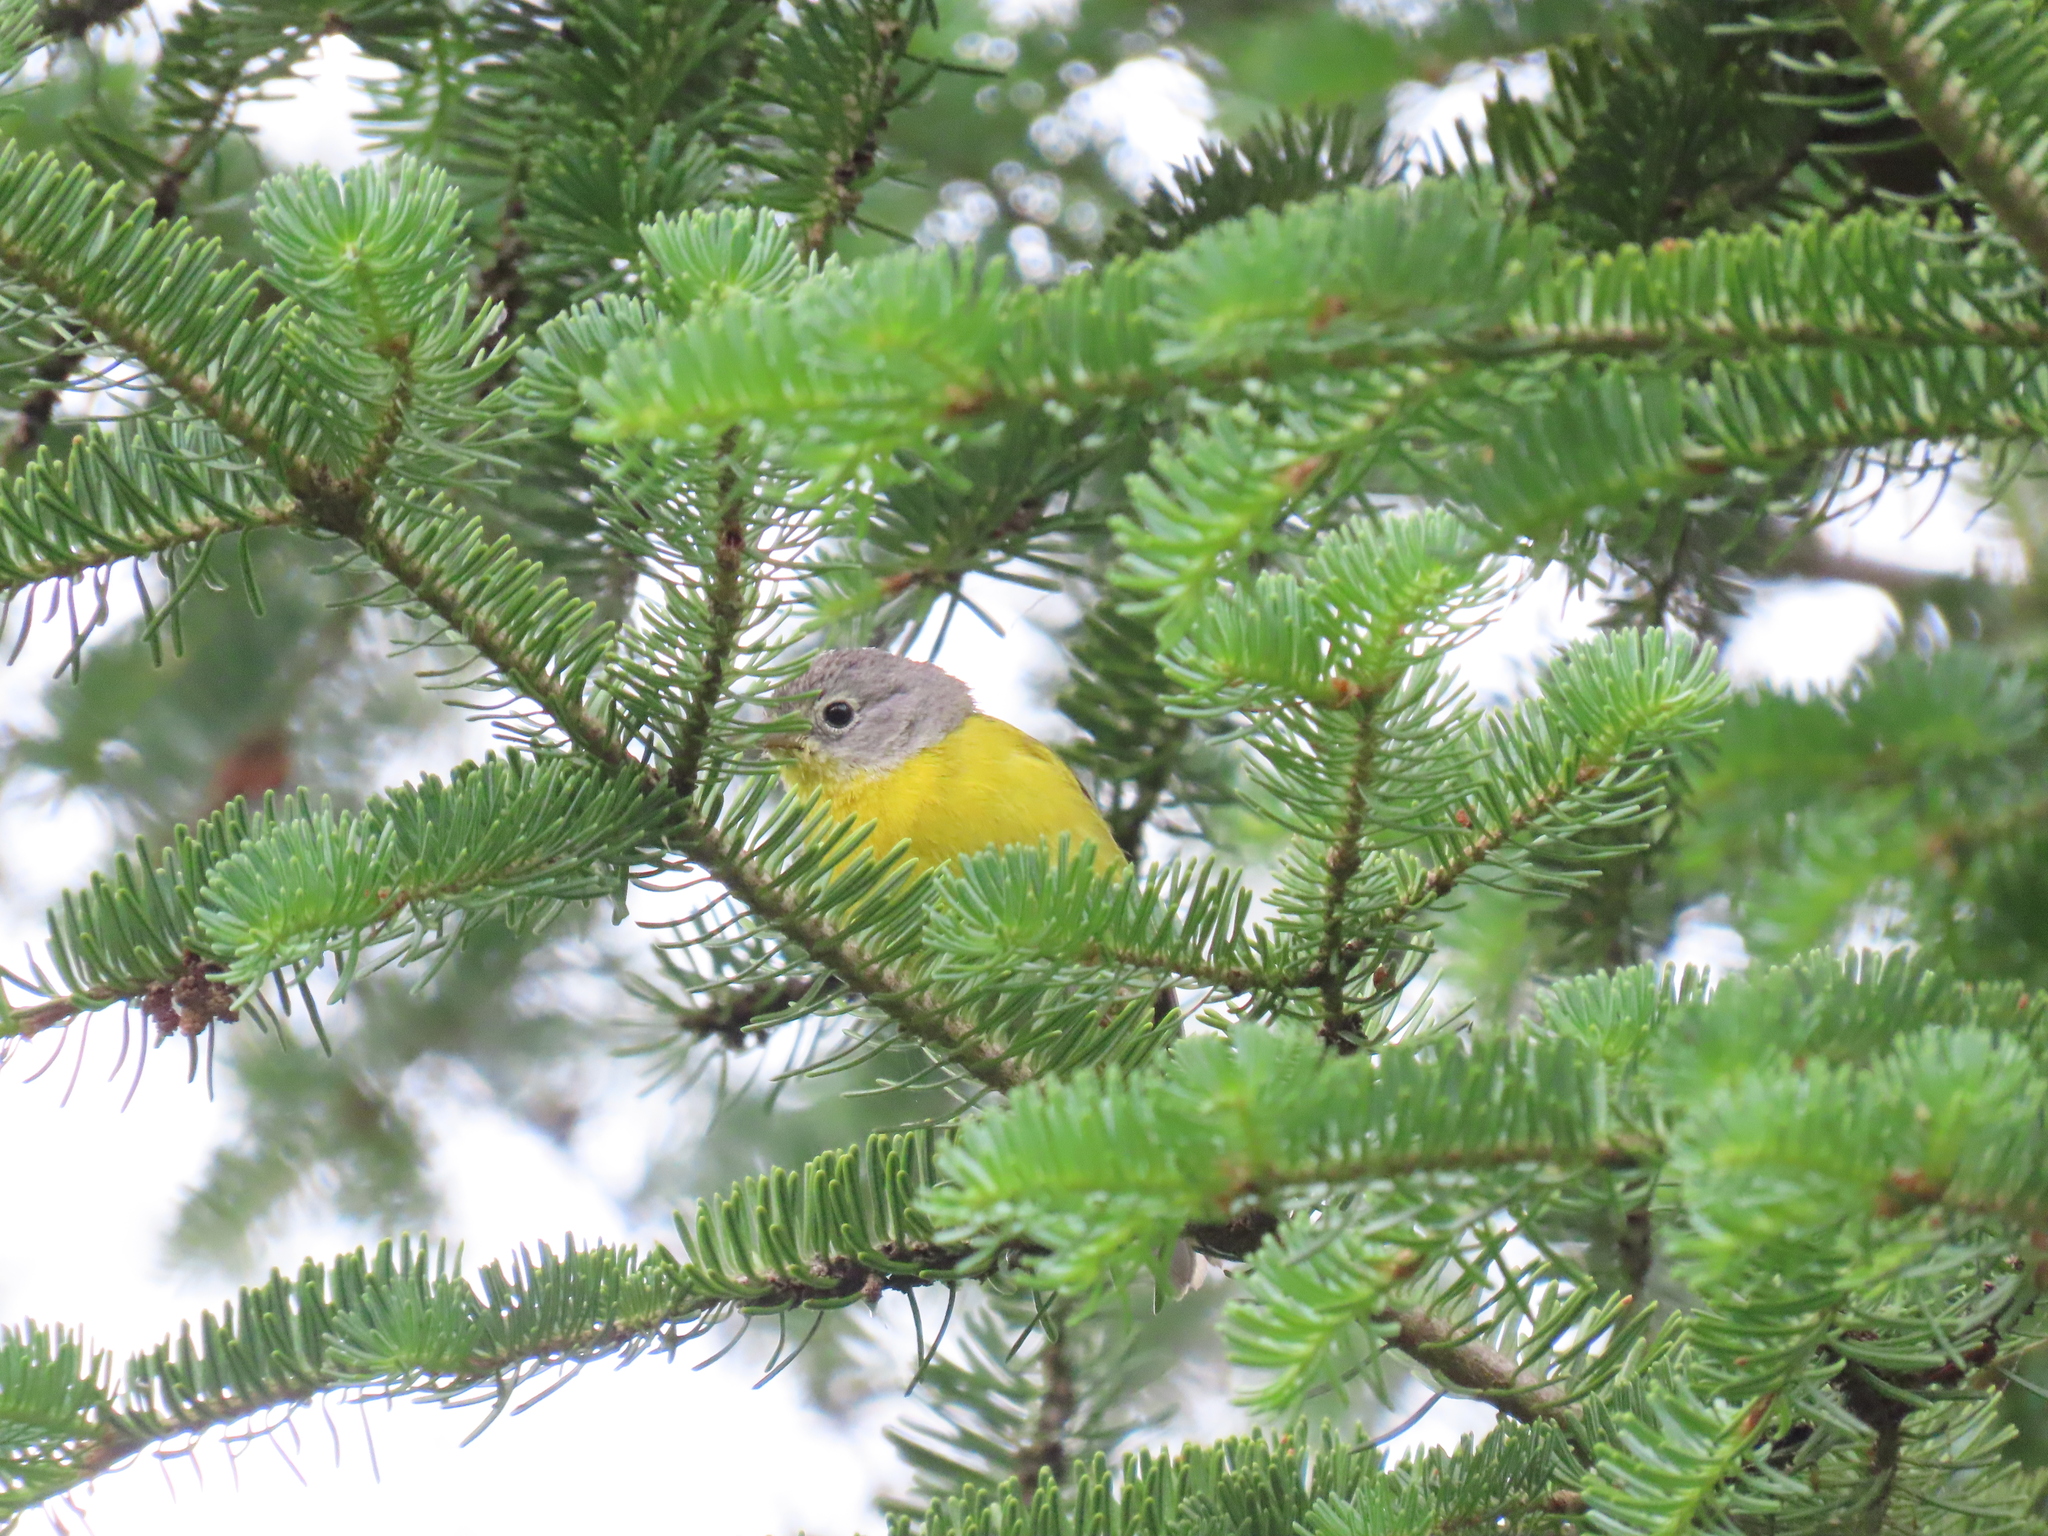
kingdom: Animalia
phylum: Chordata
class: Aves
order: Passeriformes
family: Parulidae
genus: Leiothlypis
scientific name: Leiothlypis ruficapilla
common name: Nashville warbler
